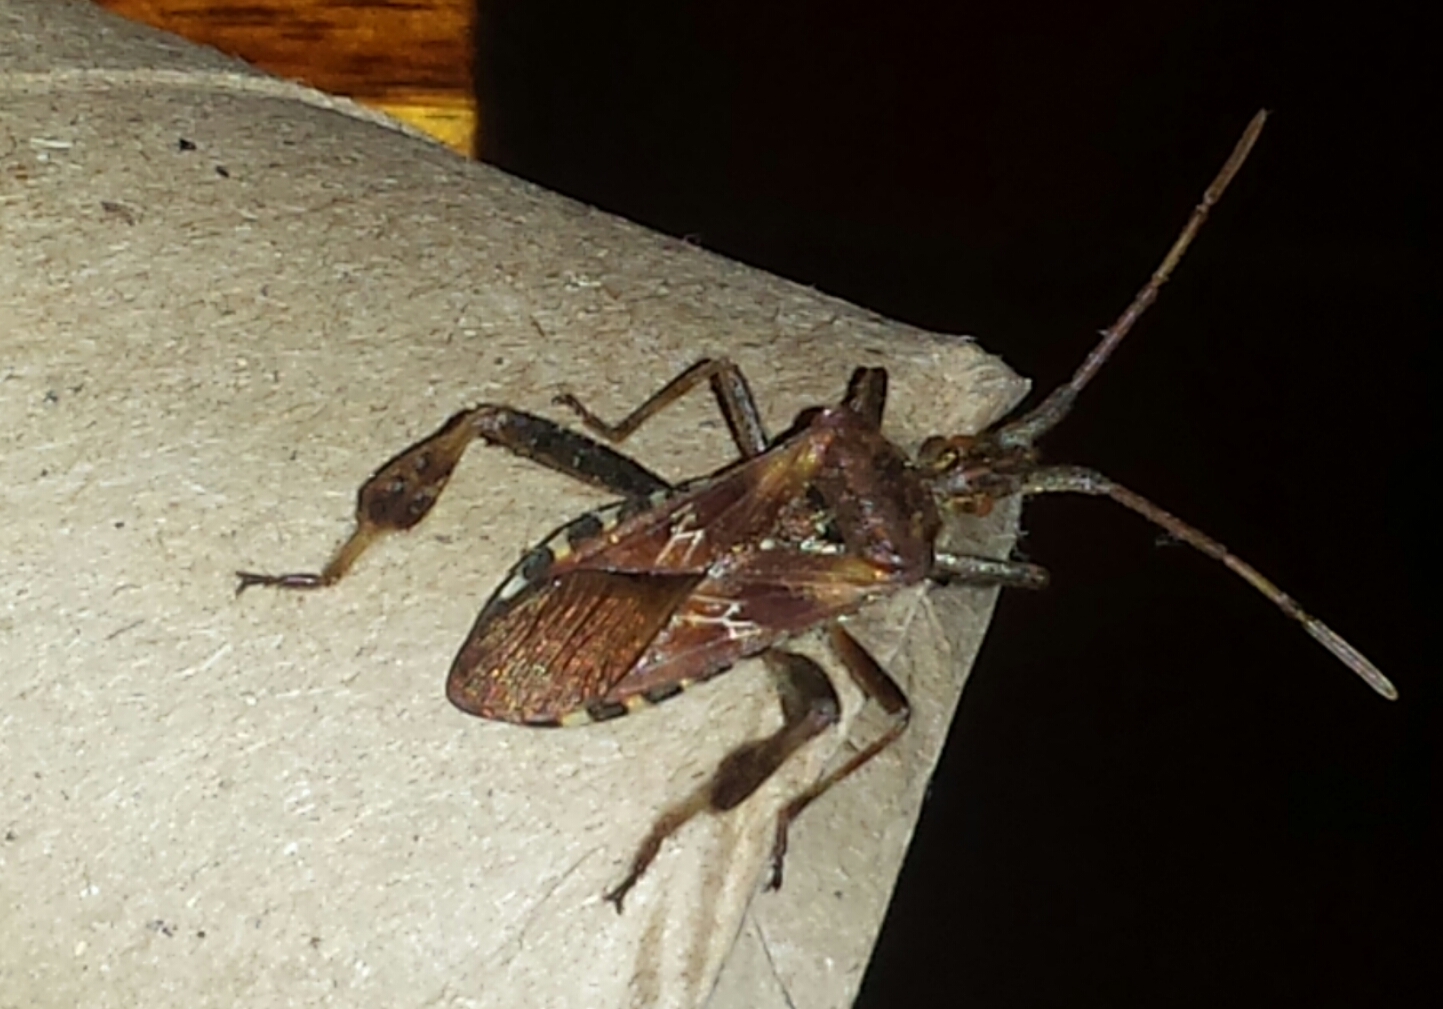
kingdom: Animalia
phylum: Arthropoda
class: Insecta
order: Hemiptera
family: Coreidae
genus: Leptoglossus
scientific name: Leptoglossus occidentalis
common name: Western conifer-seed bug
